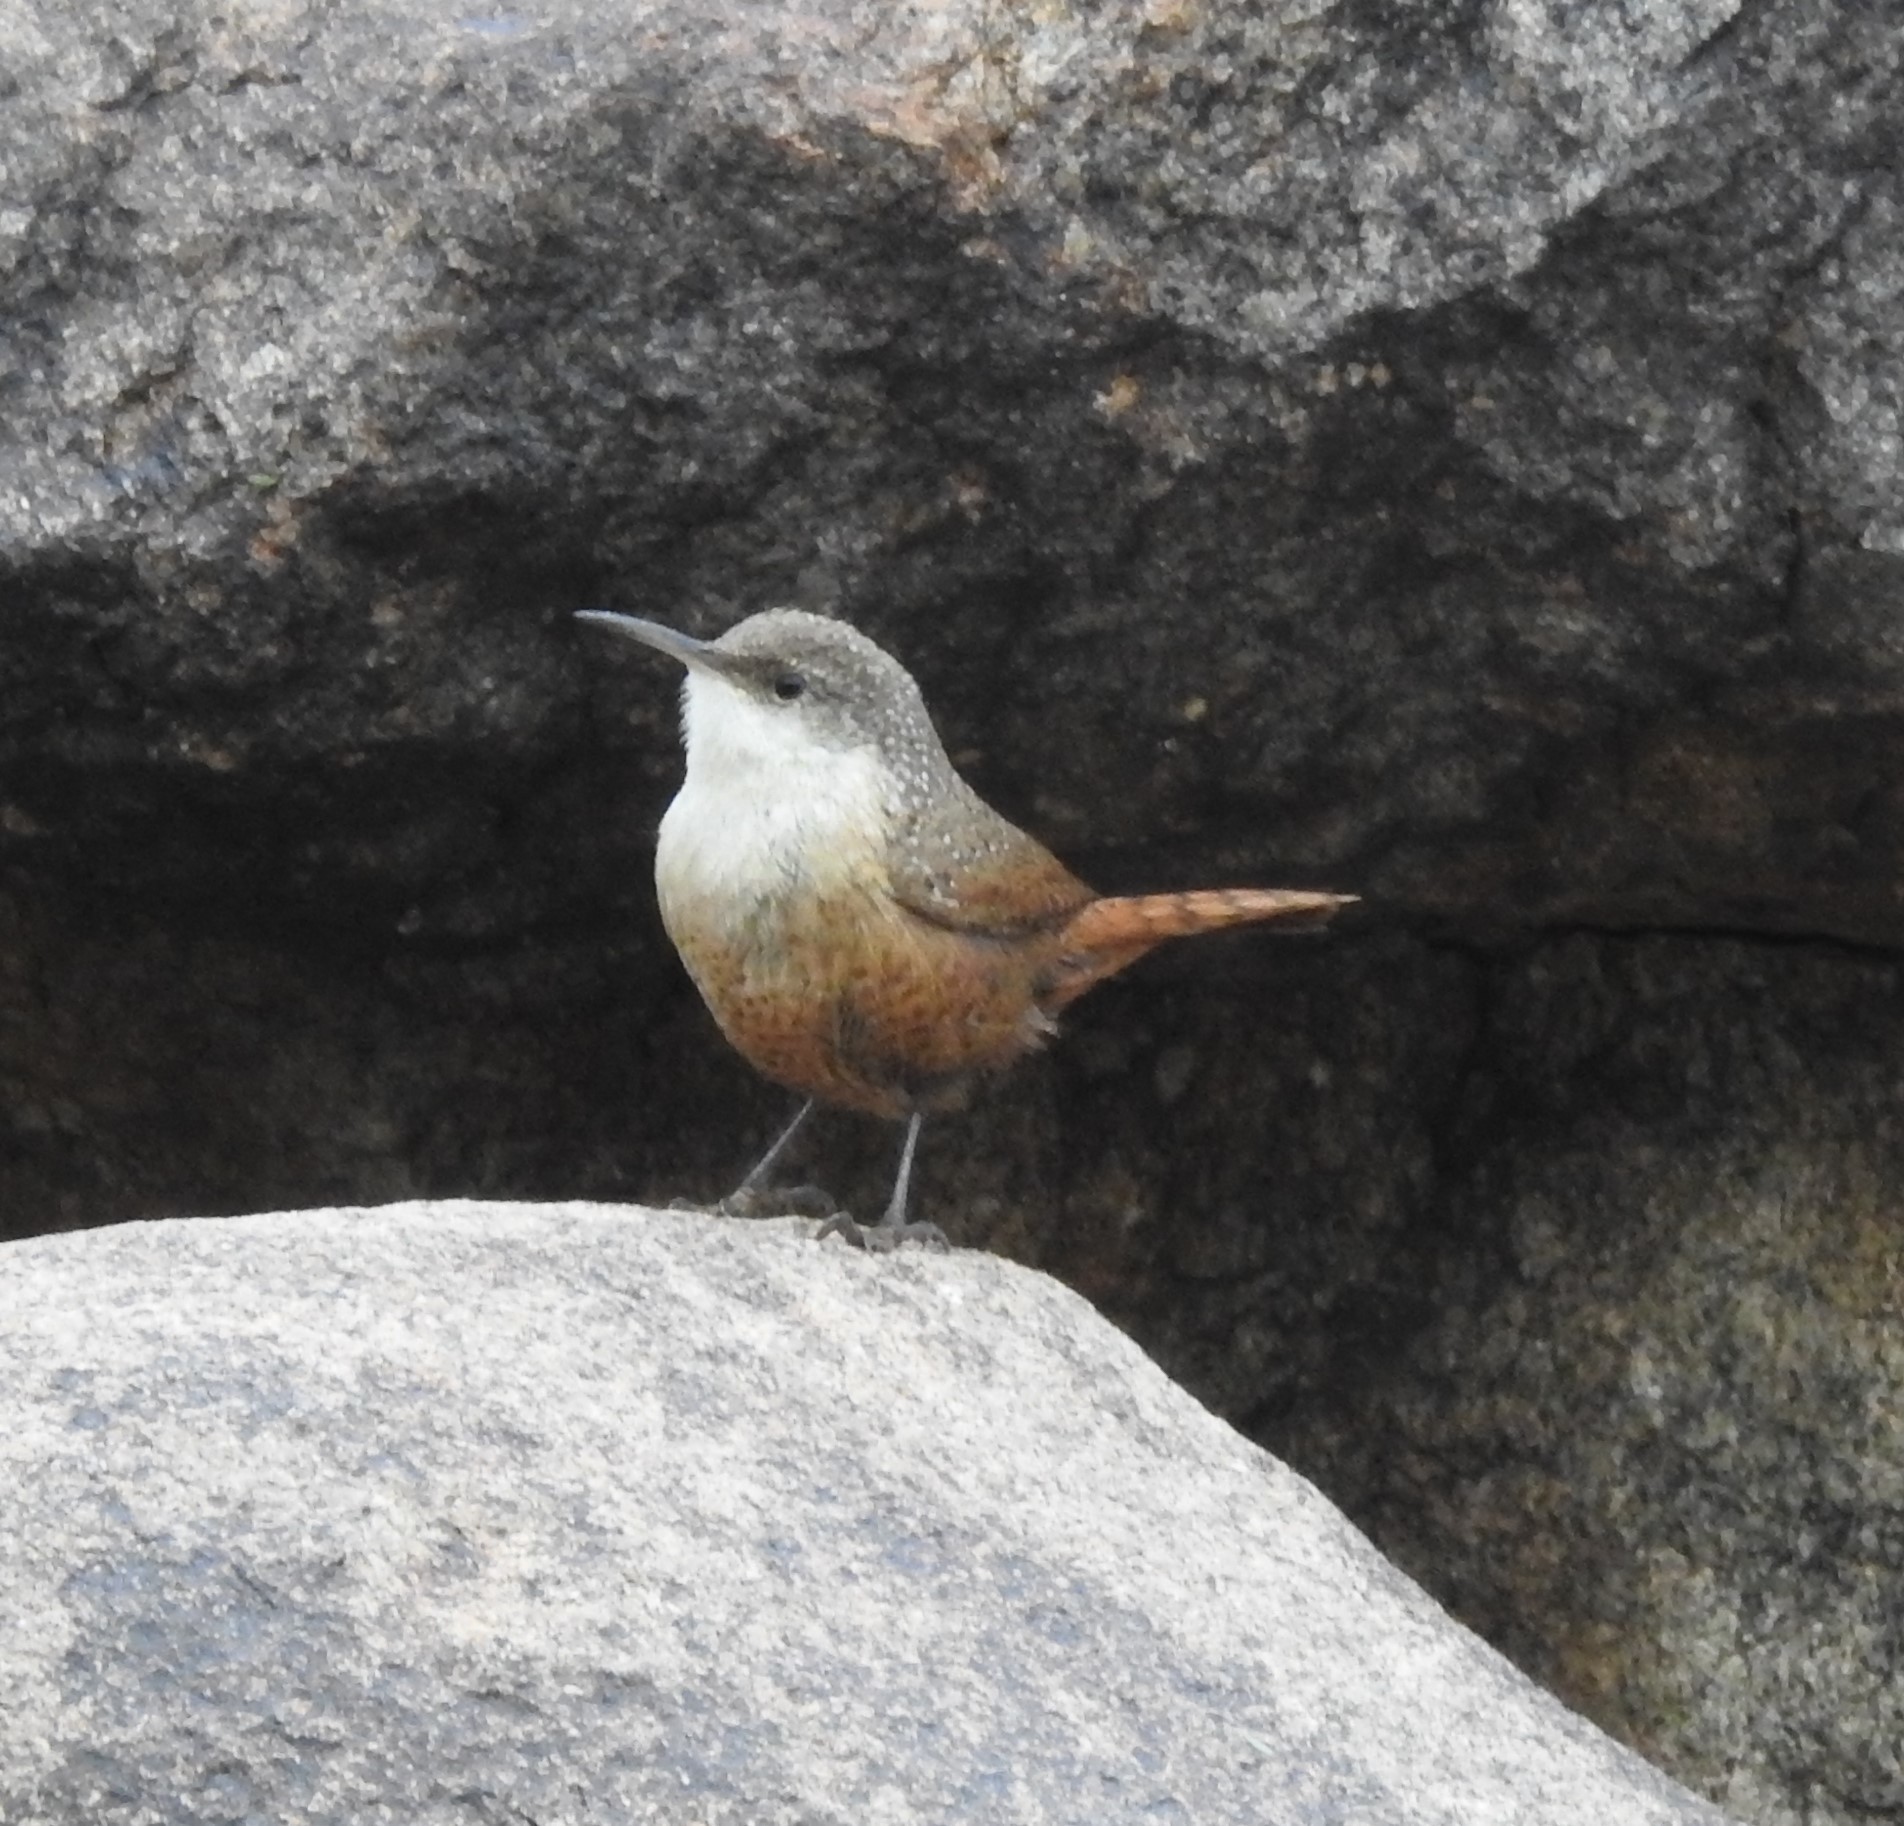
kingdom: Animalia
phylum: Chordata
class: Aves
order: Passeriformes
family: Troglodytidae
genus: Catherpes
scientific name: Catherpes mexicanus
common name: Canyon wren
